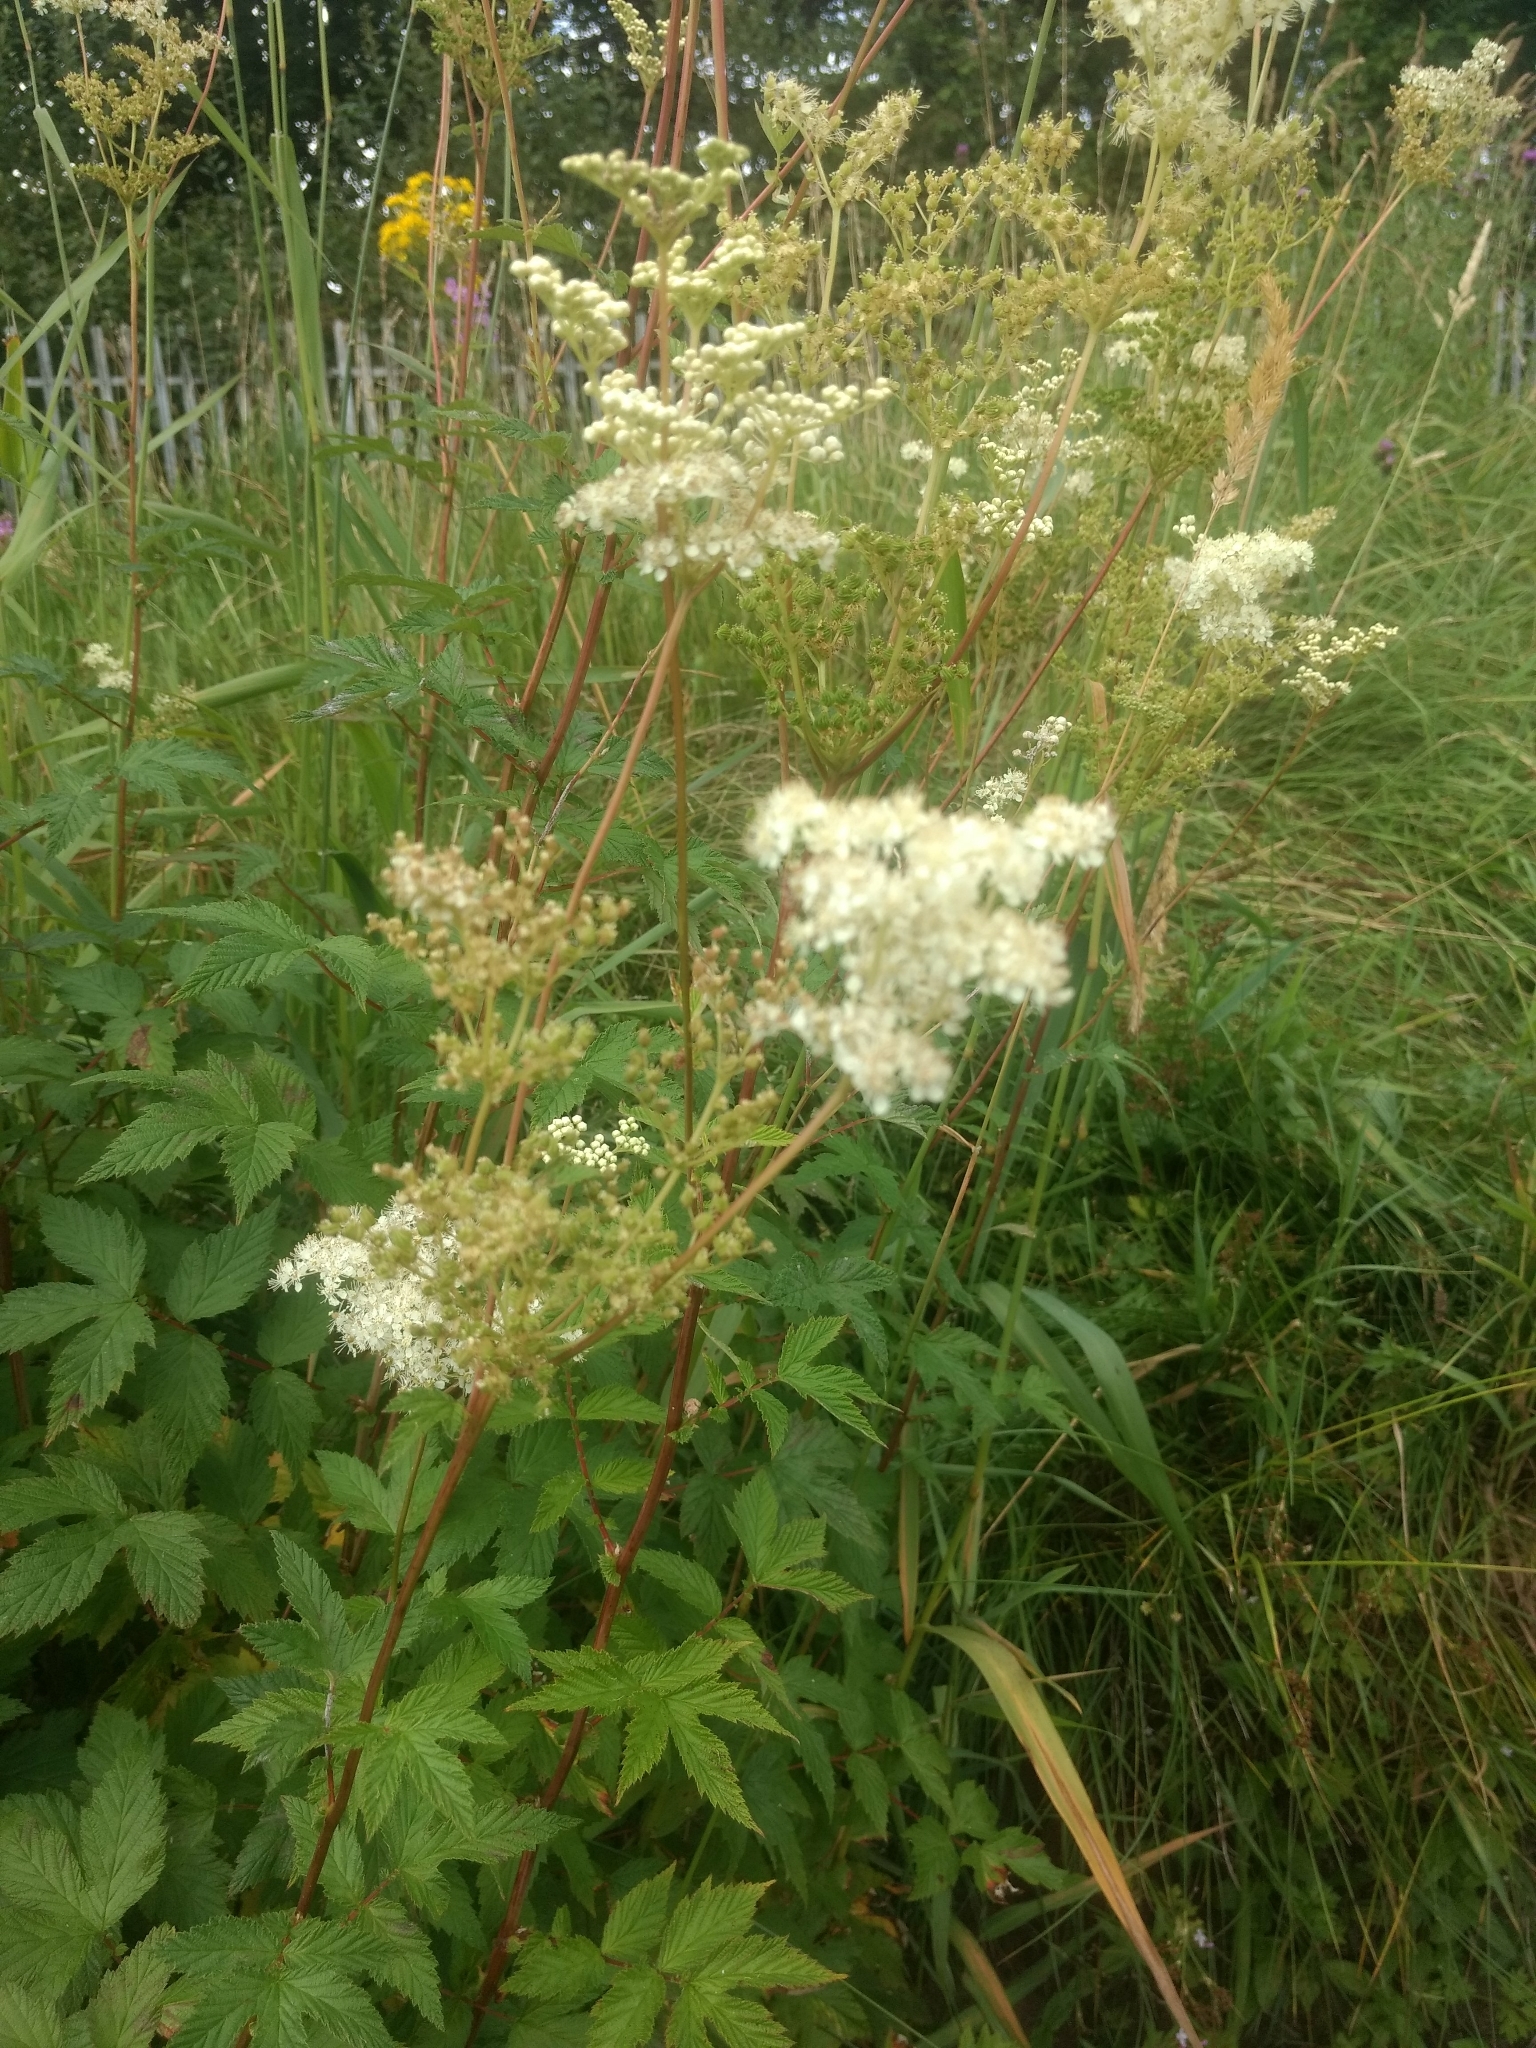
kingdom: Plantae
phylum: Tracheophyta
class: Magnoliopsida
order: Rosales
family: Rosaceae
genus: Filipendula
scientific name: Filipendula ulmaria
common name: Meadowsweet
